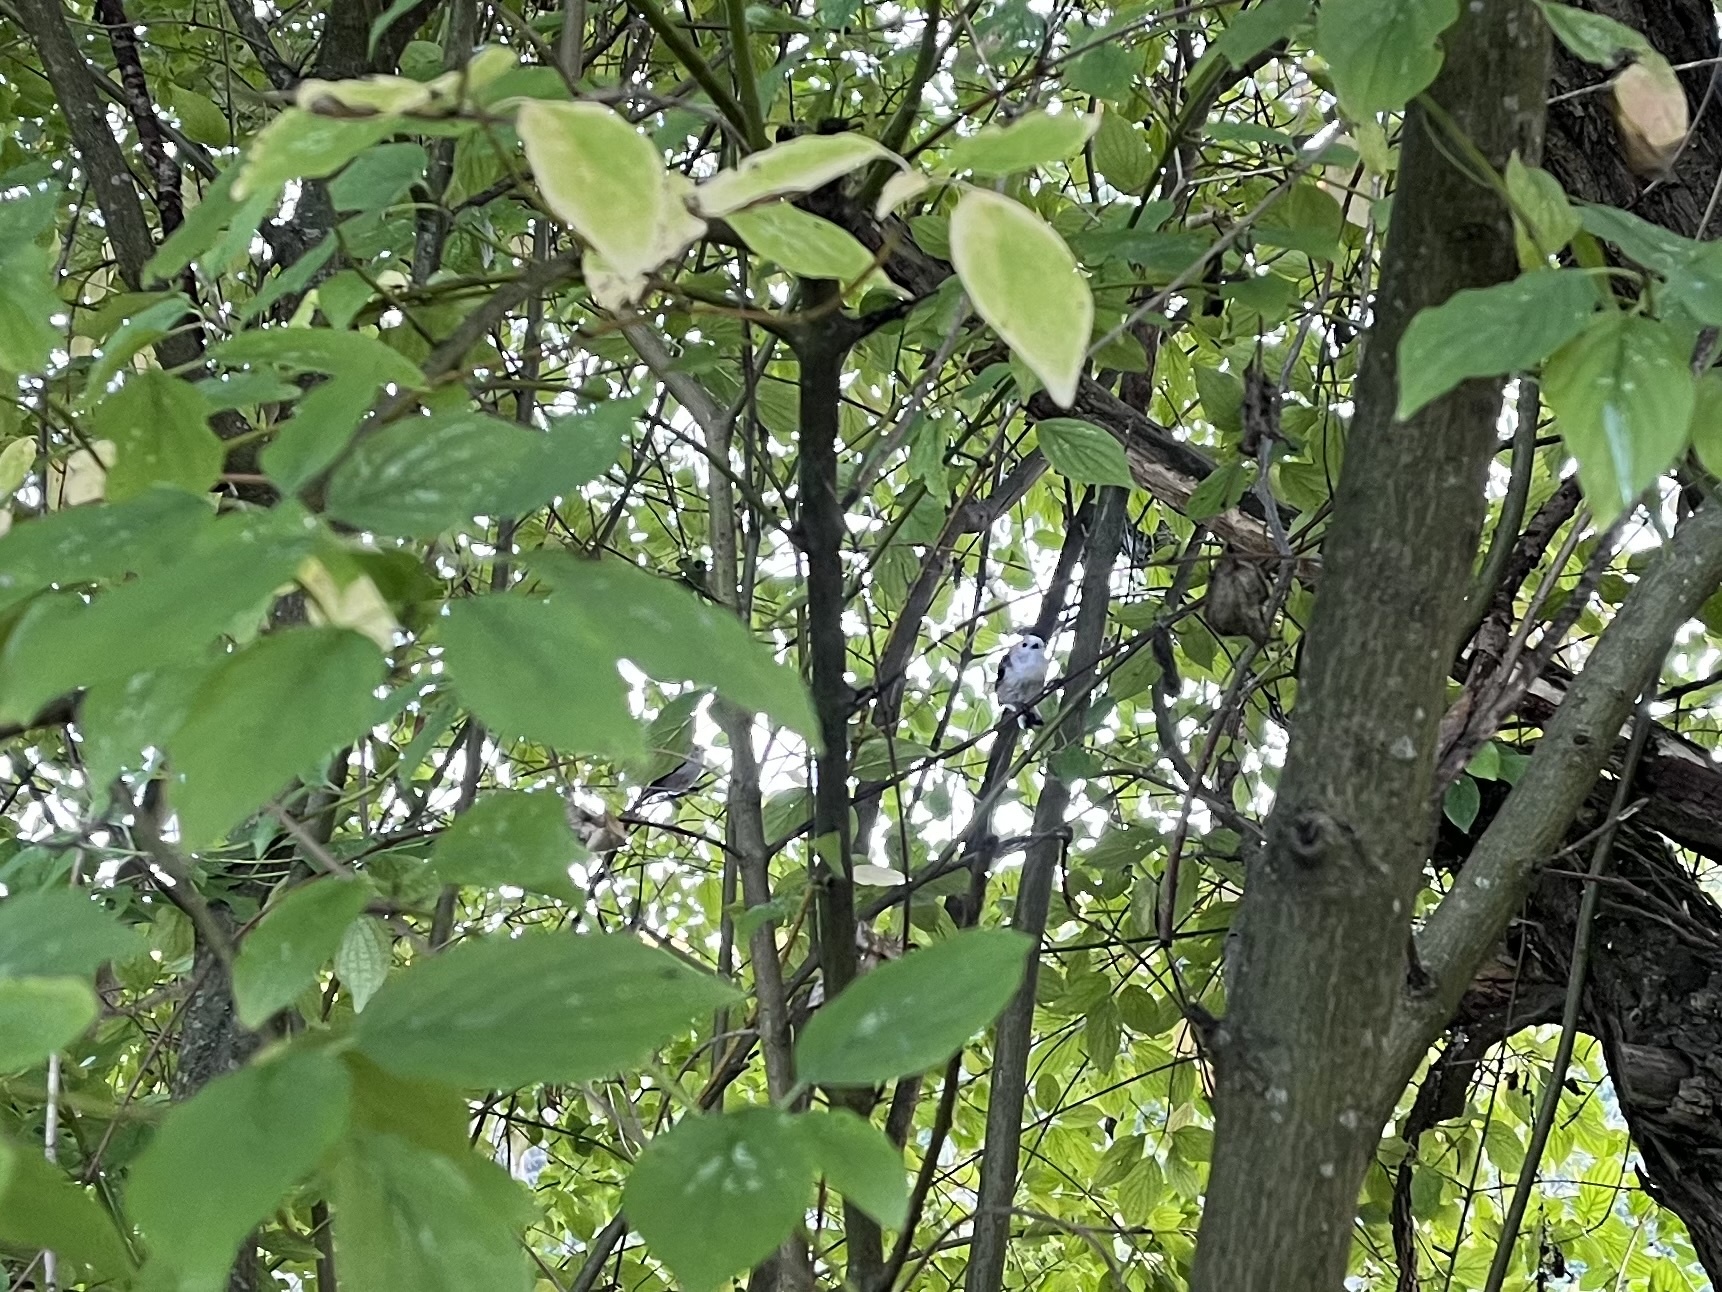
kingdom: Animalia
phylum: Chordata
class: Aves
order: Passeriformes
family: Aegithalidae
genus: Aegithalos
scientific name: Aegithalos caudatus
